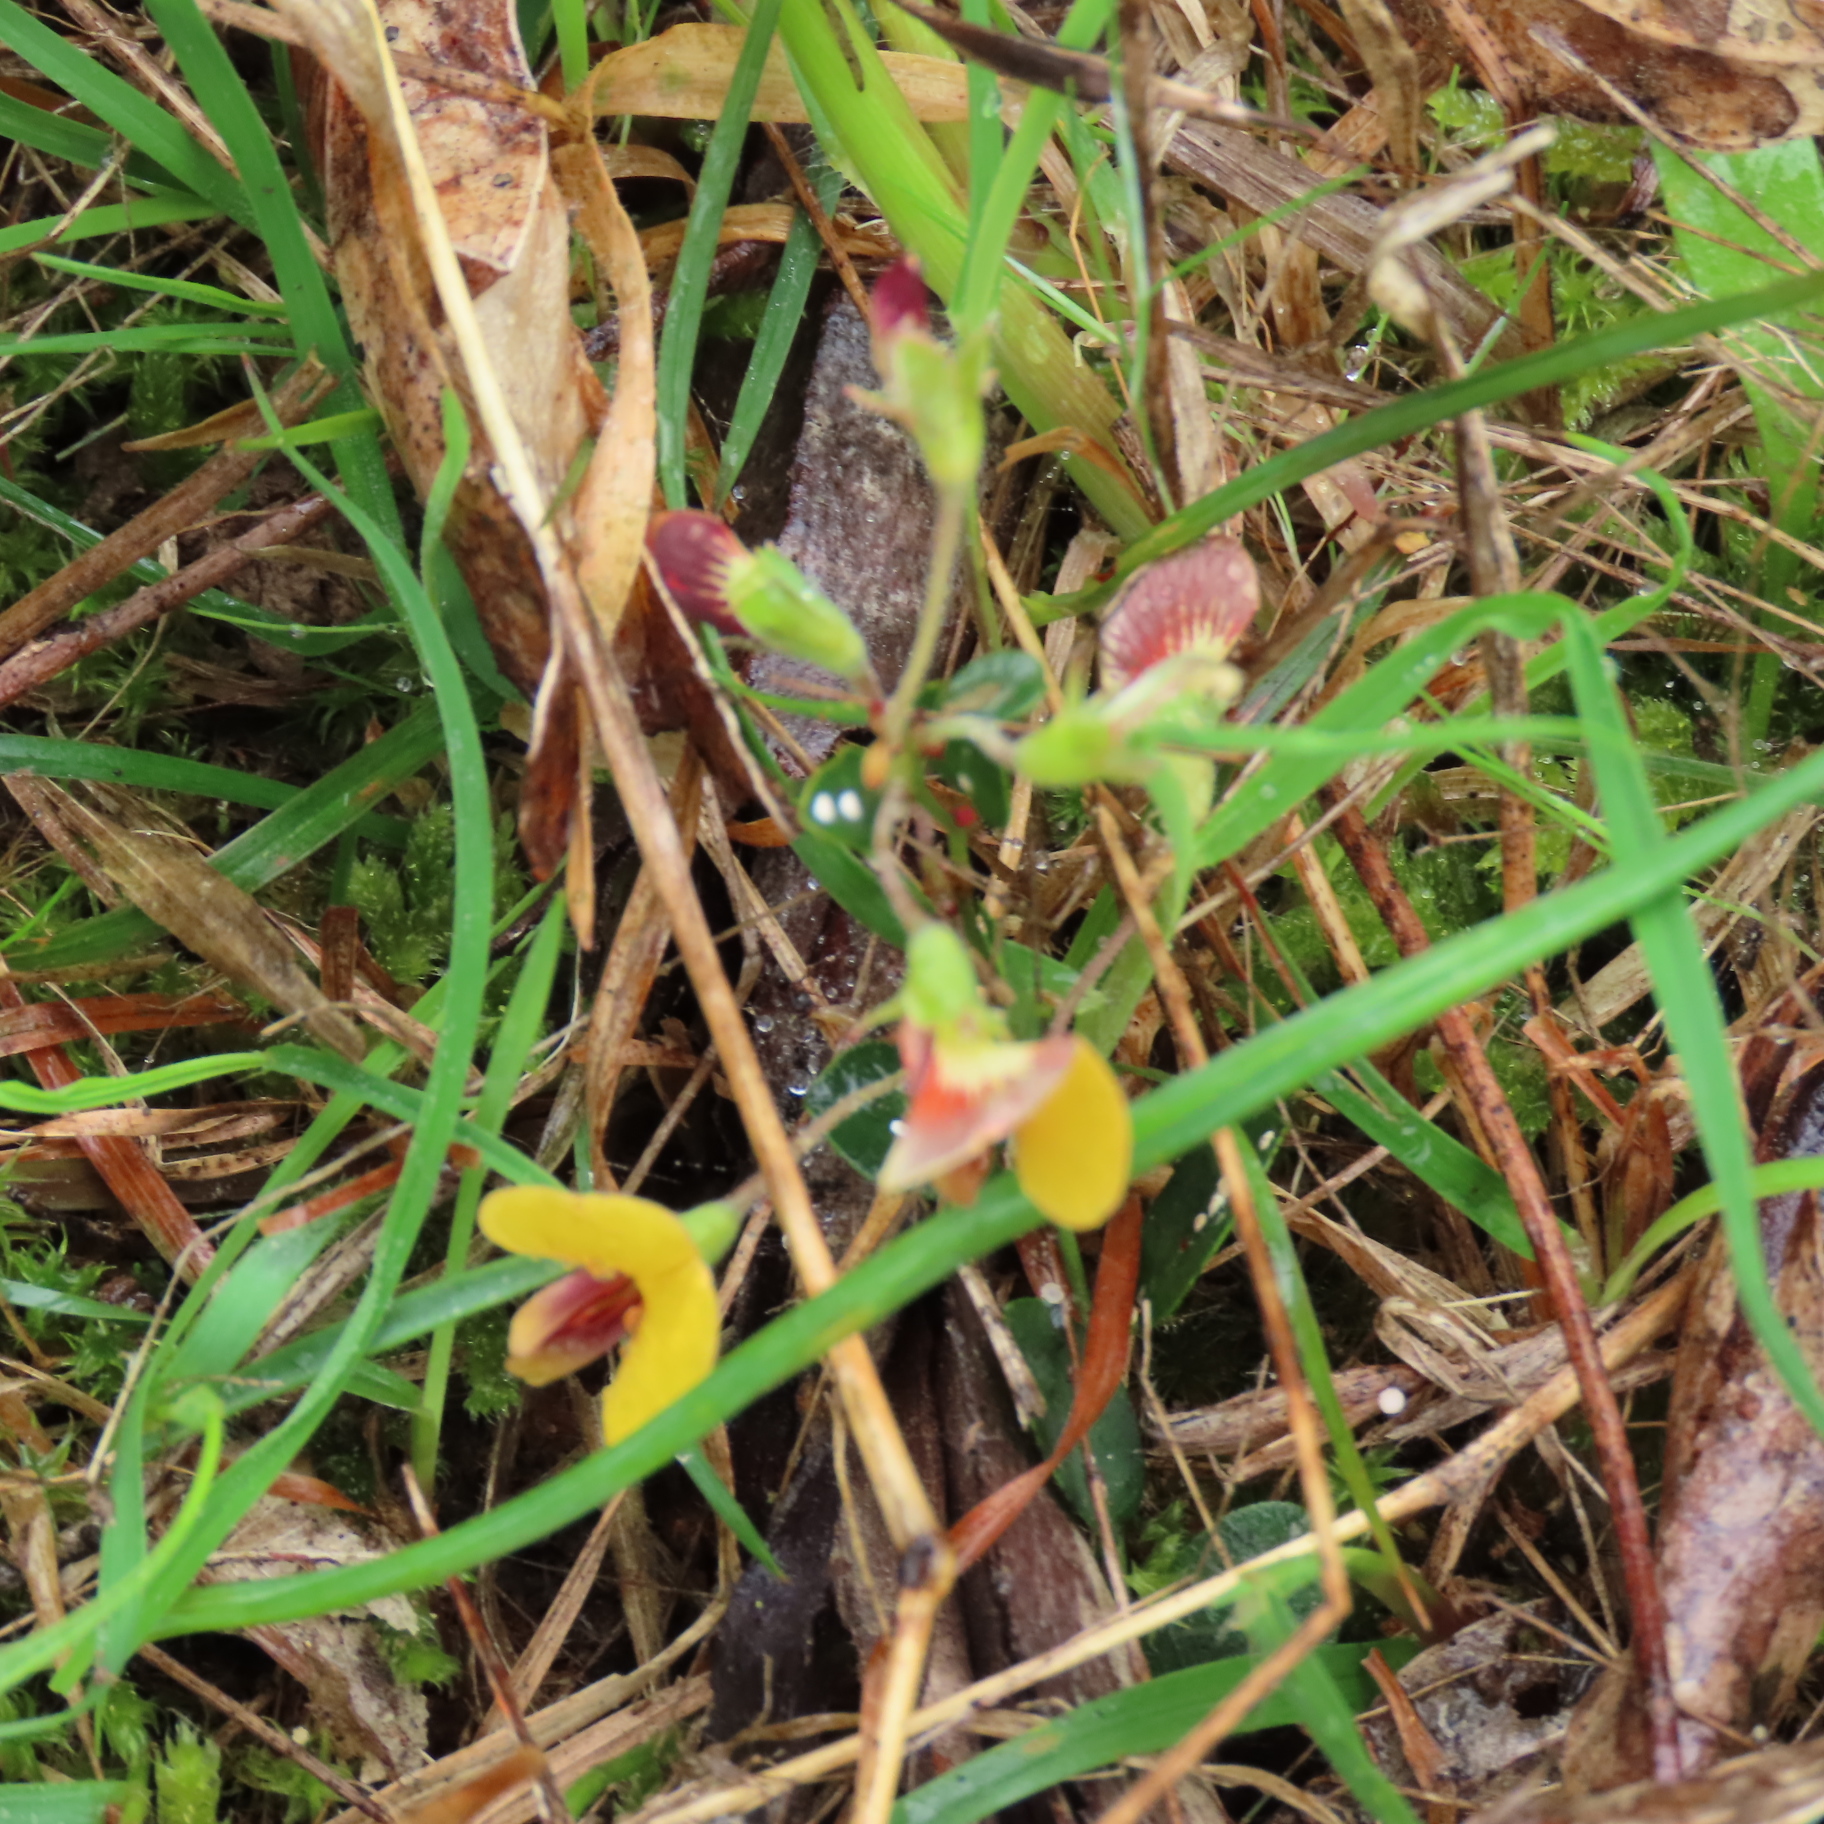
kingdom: Plantae
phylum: Tracheophyta
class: Magnoliopsida
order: Fabales
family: Fabaceae
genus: Bossiaea
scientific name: Bossiaea prostrata
